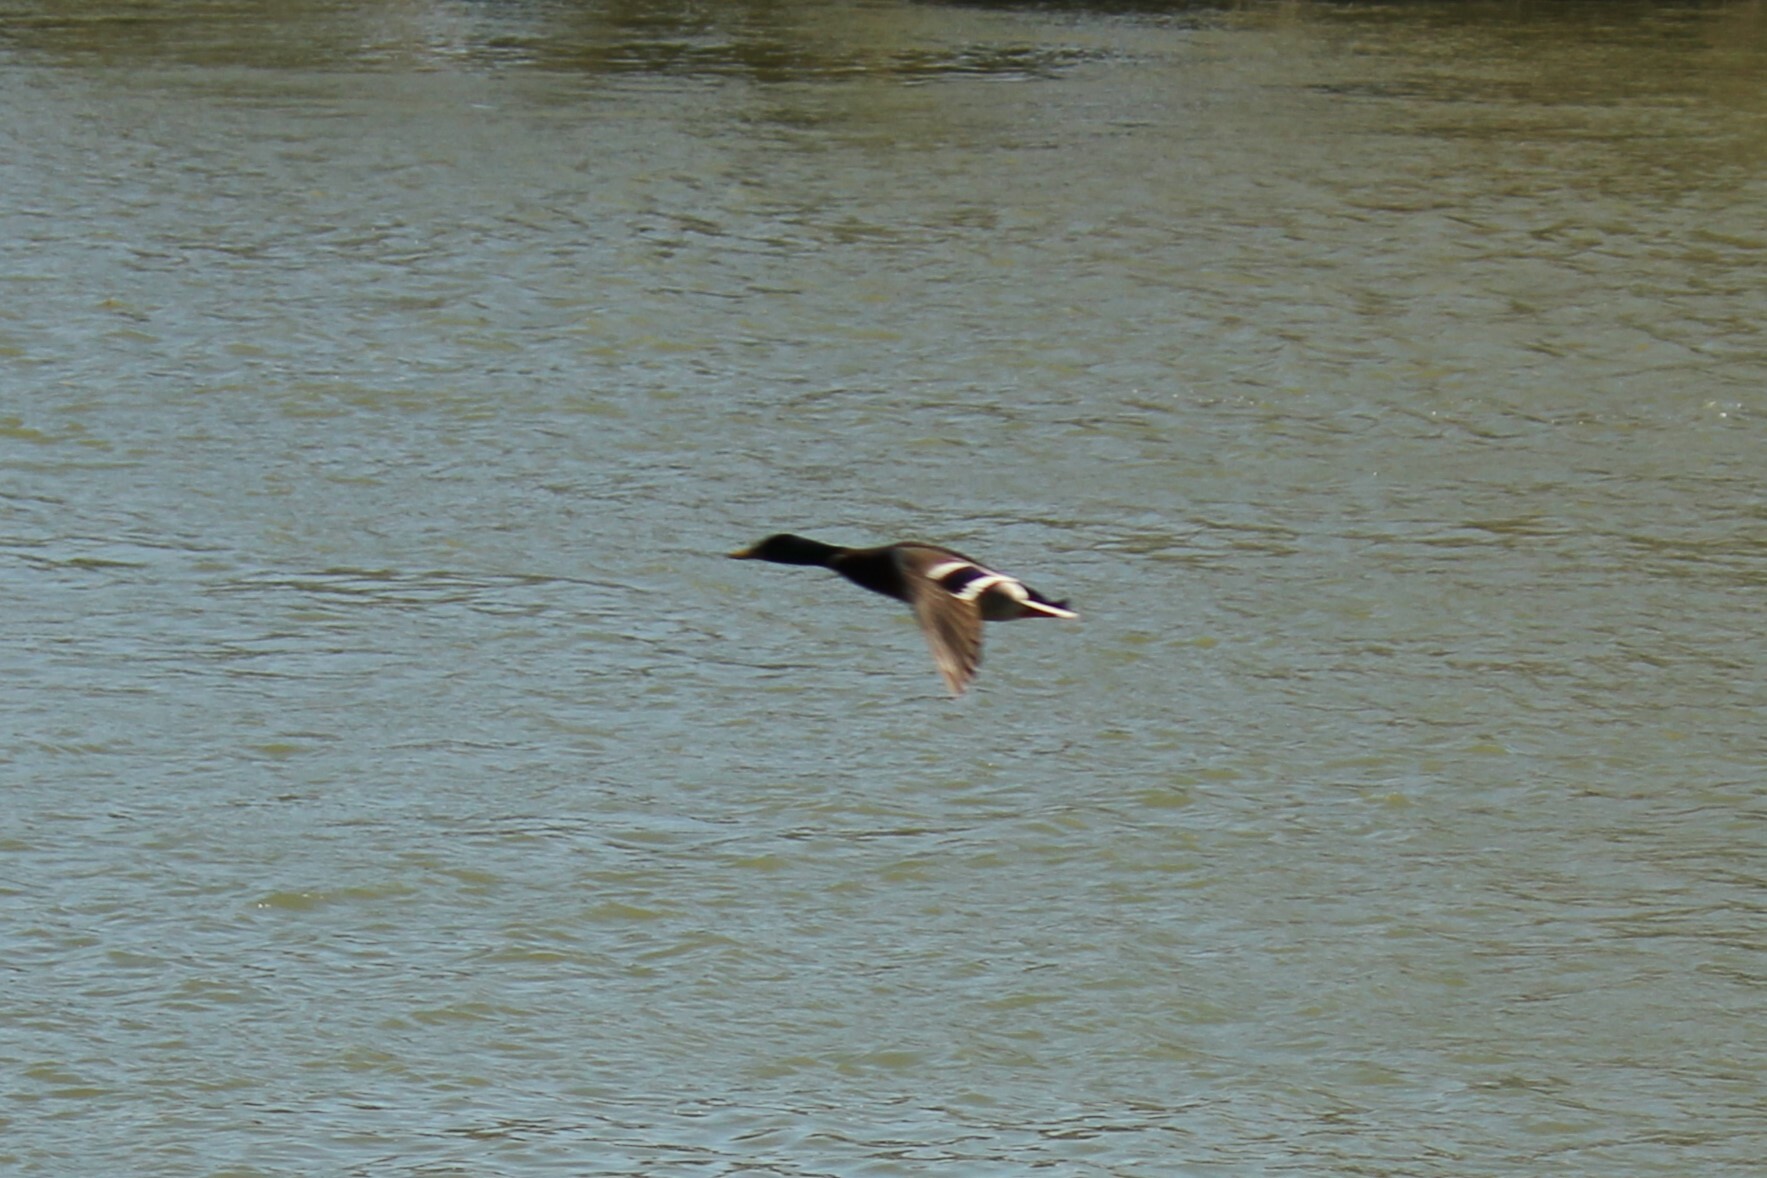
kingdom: Animalia
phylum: Chordata
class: Aves
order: Anseriformes
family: Anatidae
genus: Anas
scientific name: Anas platyrhynchos
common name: Mallard
